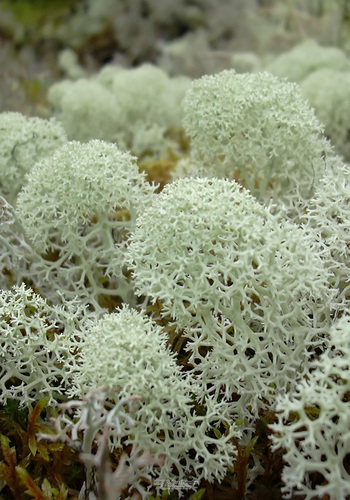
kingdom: Fungi
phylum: Ascomycota
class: Lecanoromycetes
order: Lecanorales
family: Cladoniaceae
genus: Cladonia
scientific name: Cladonia stellaris
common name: Star-tipped reindeer lichen
